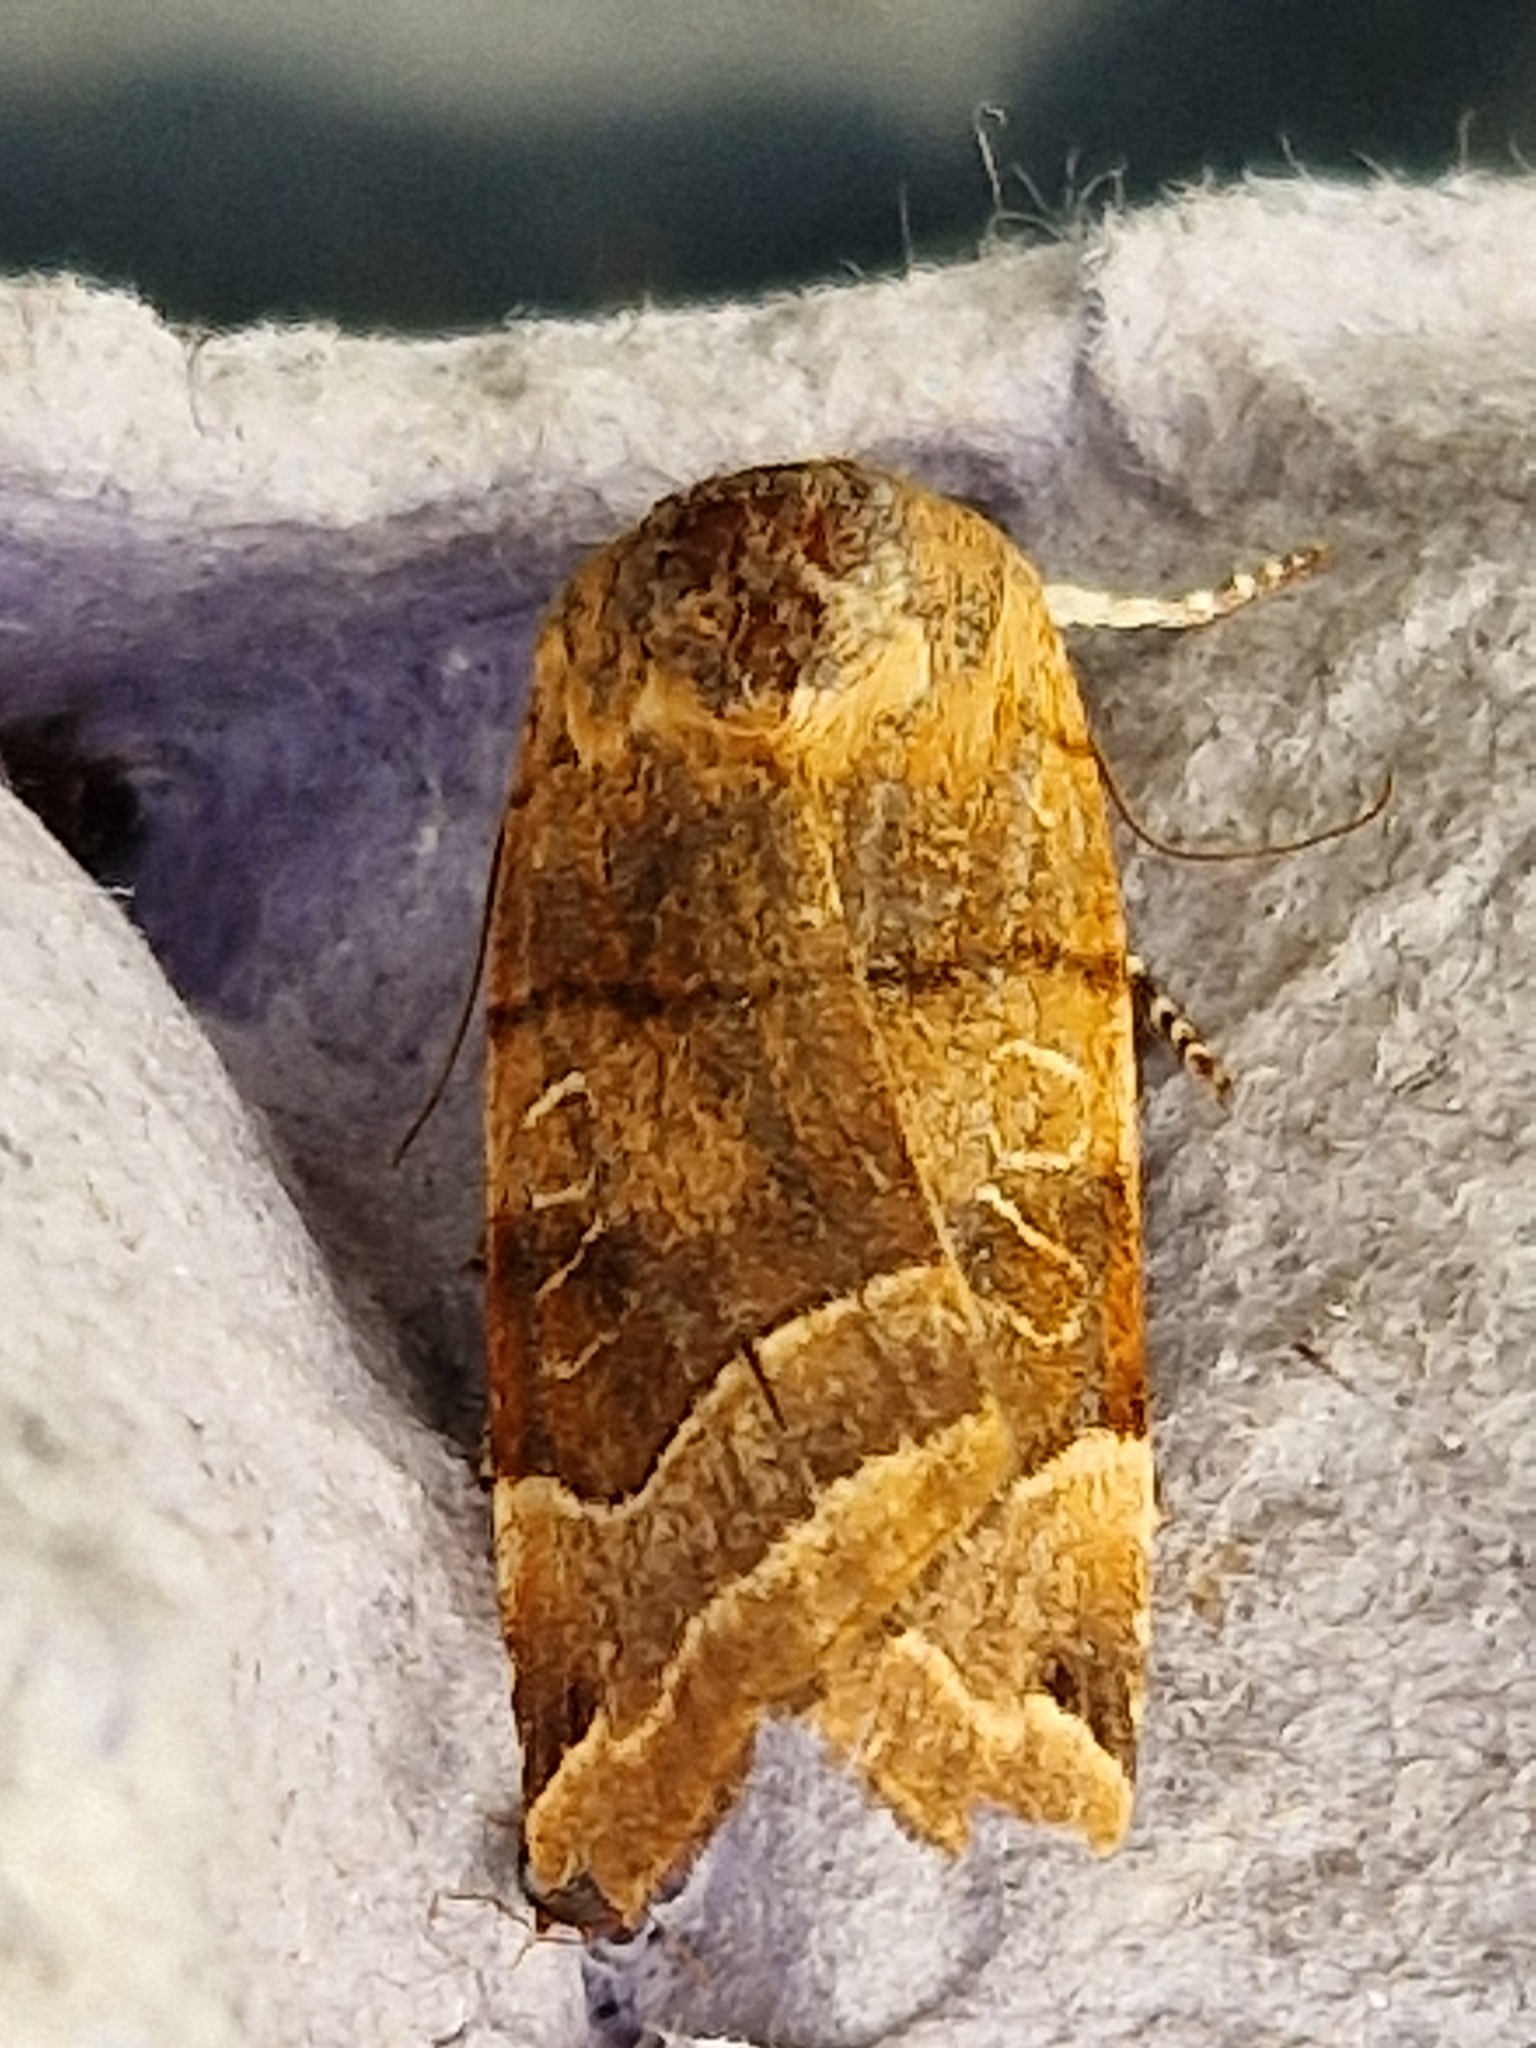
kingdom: Animalia
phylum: Arthropoda
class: Insecta
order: Lepidoptera
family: Noctuidae
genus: Noctua
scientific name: Noctua fimbriata
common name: Broad-bordered yellow underwing
